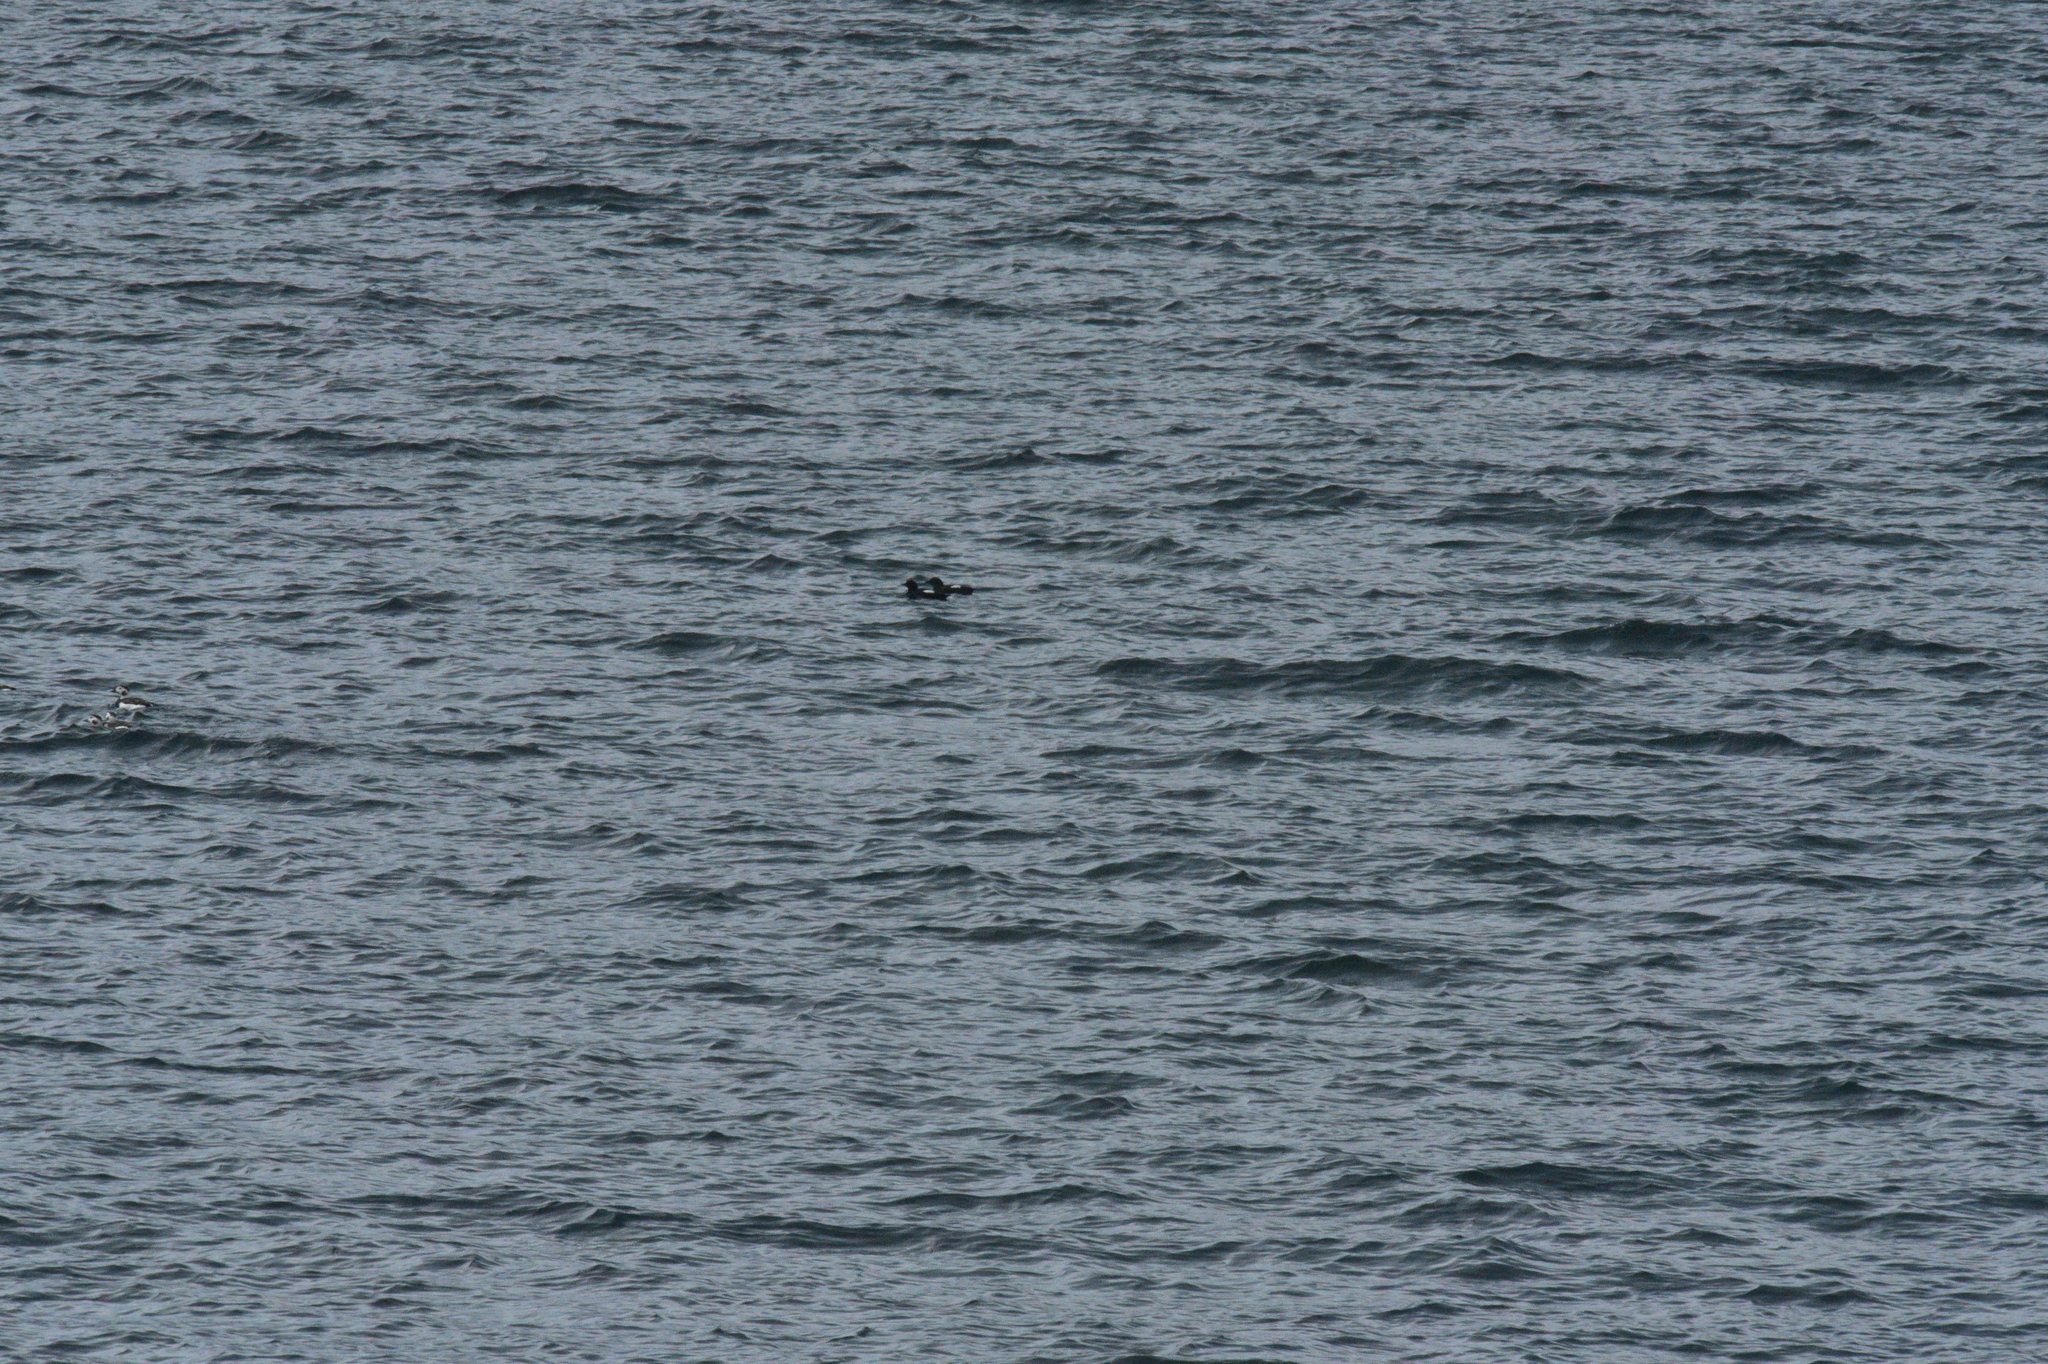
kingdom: Animalia
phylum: Chordata
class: Aves
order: Charadriiformes
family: Alcidae
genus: Cepphus
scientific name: Cepphus columba
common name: Pigeon guillemot
